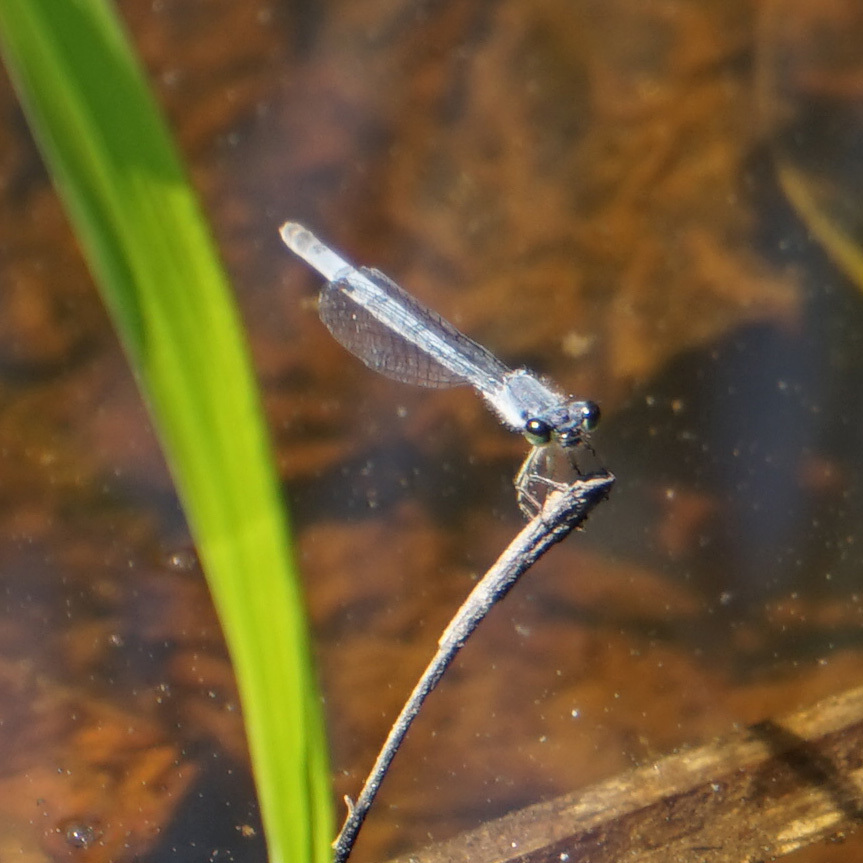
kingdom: Animalia
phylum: Arthropoda
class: Insecta
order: Odonata
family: Coenagrionidae
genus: Ischnura
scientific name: Ischnura posita
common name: Fragile forktail
